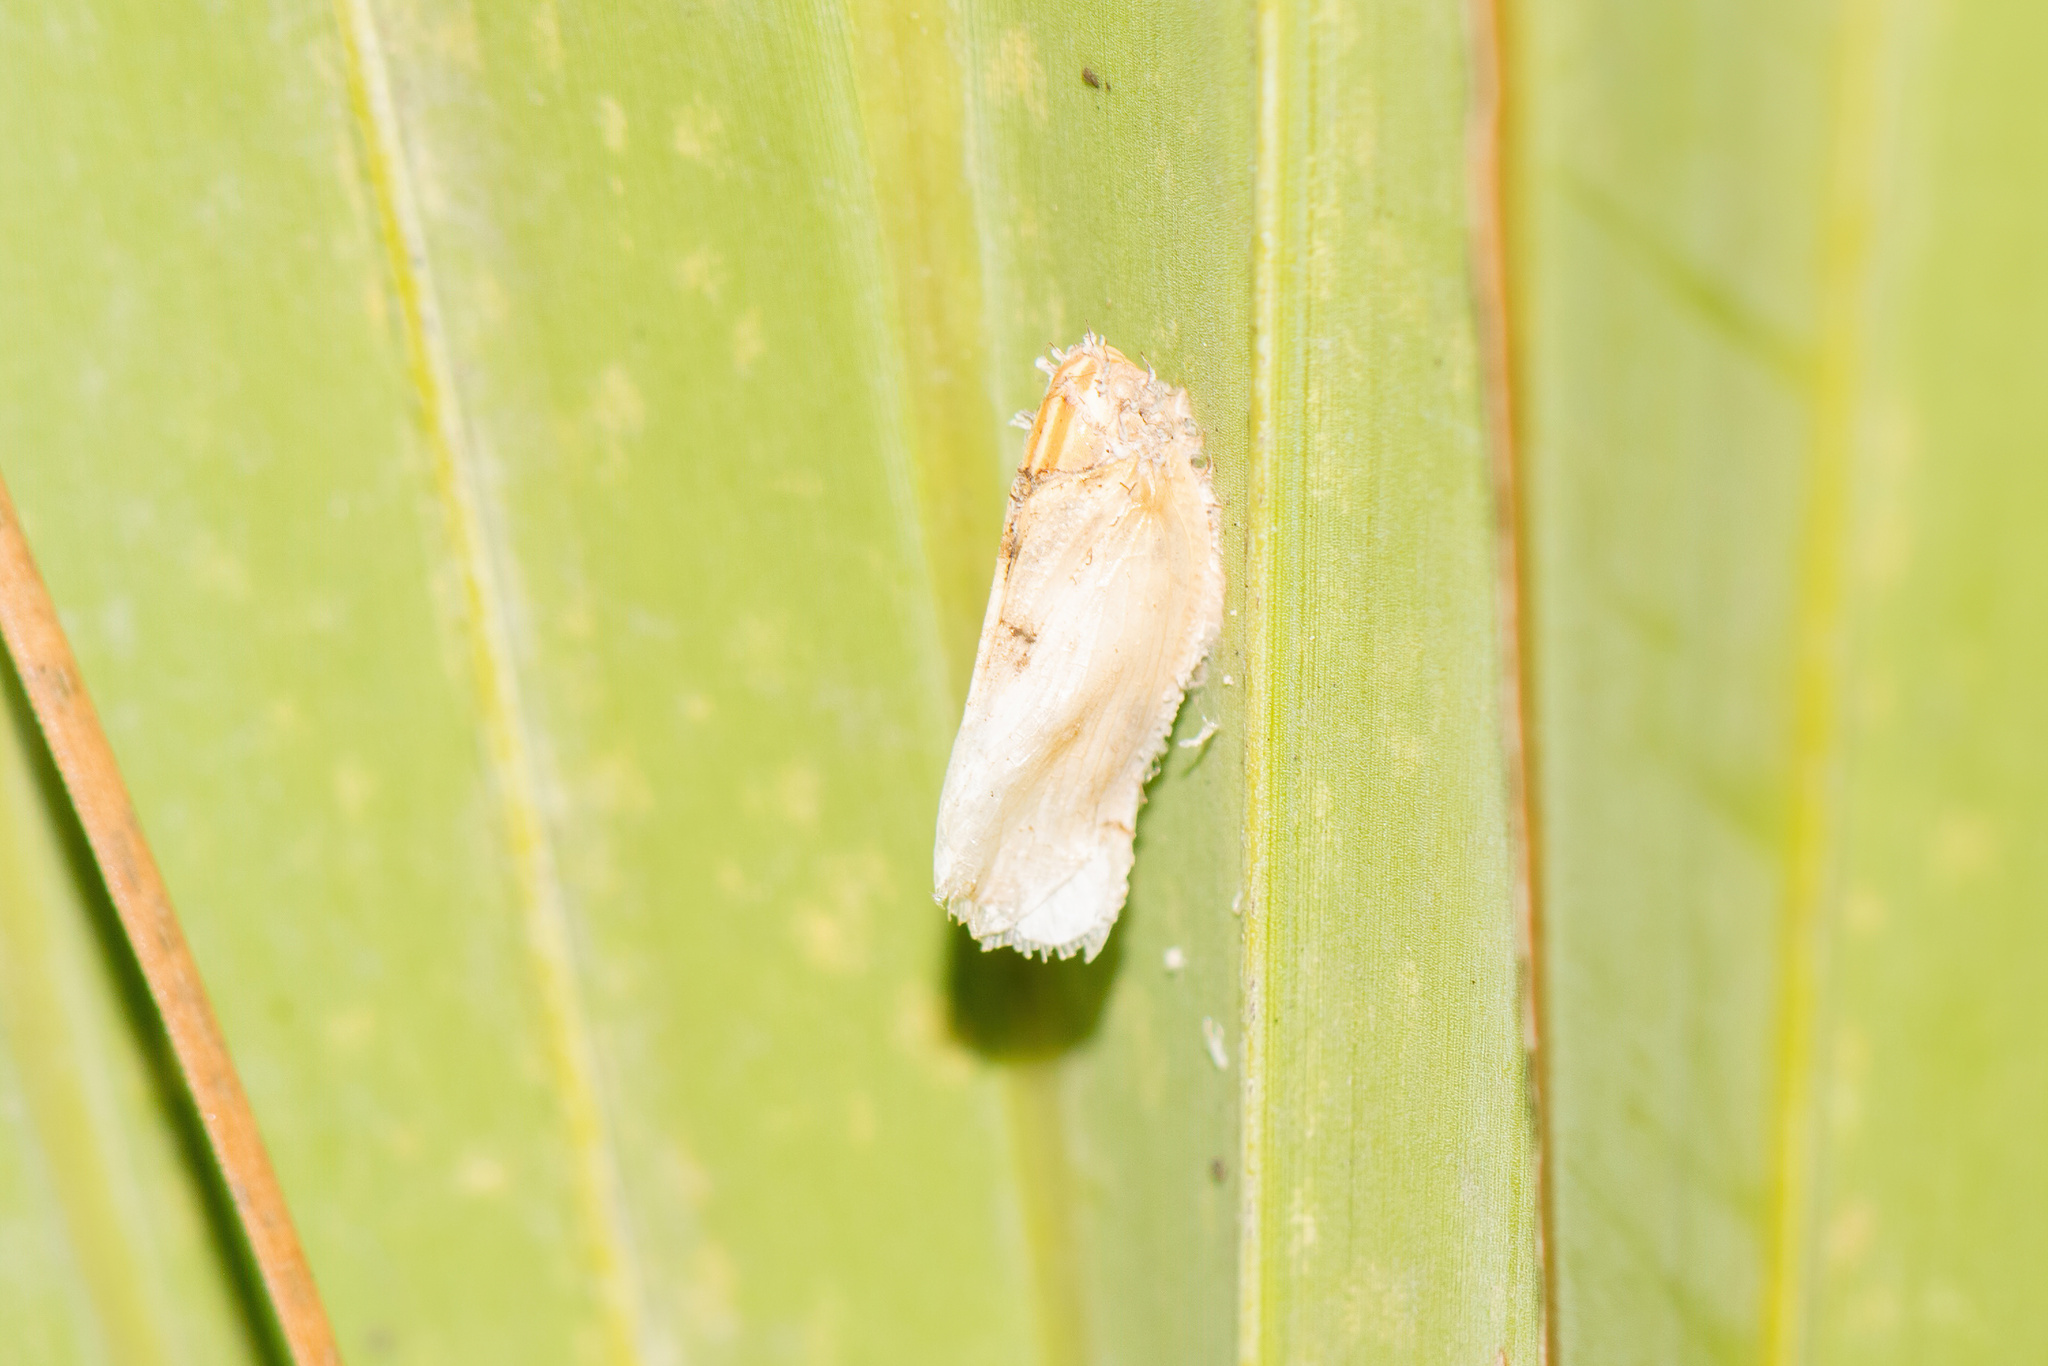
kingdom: Animalia
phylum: Arthropoda
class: Insecta
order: Hemiptera
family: Flatidae
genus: Ormenaria
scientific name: Ormenaria rufifascia
